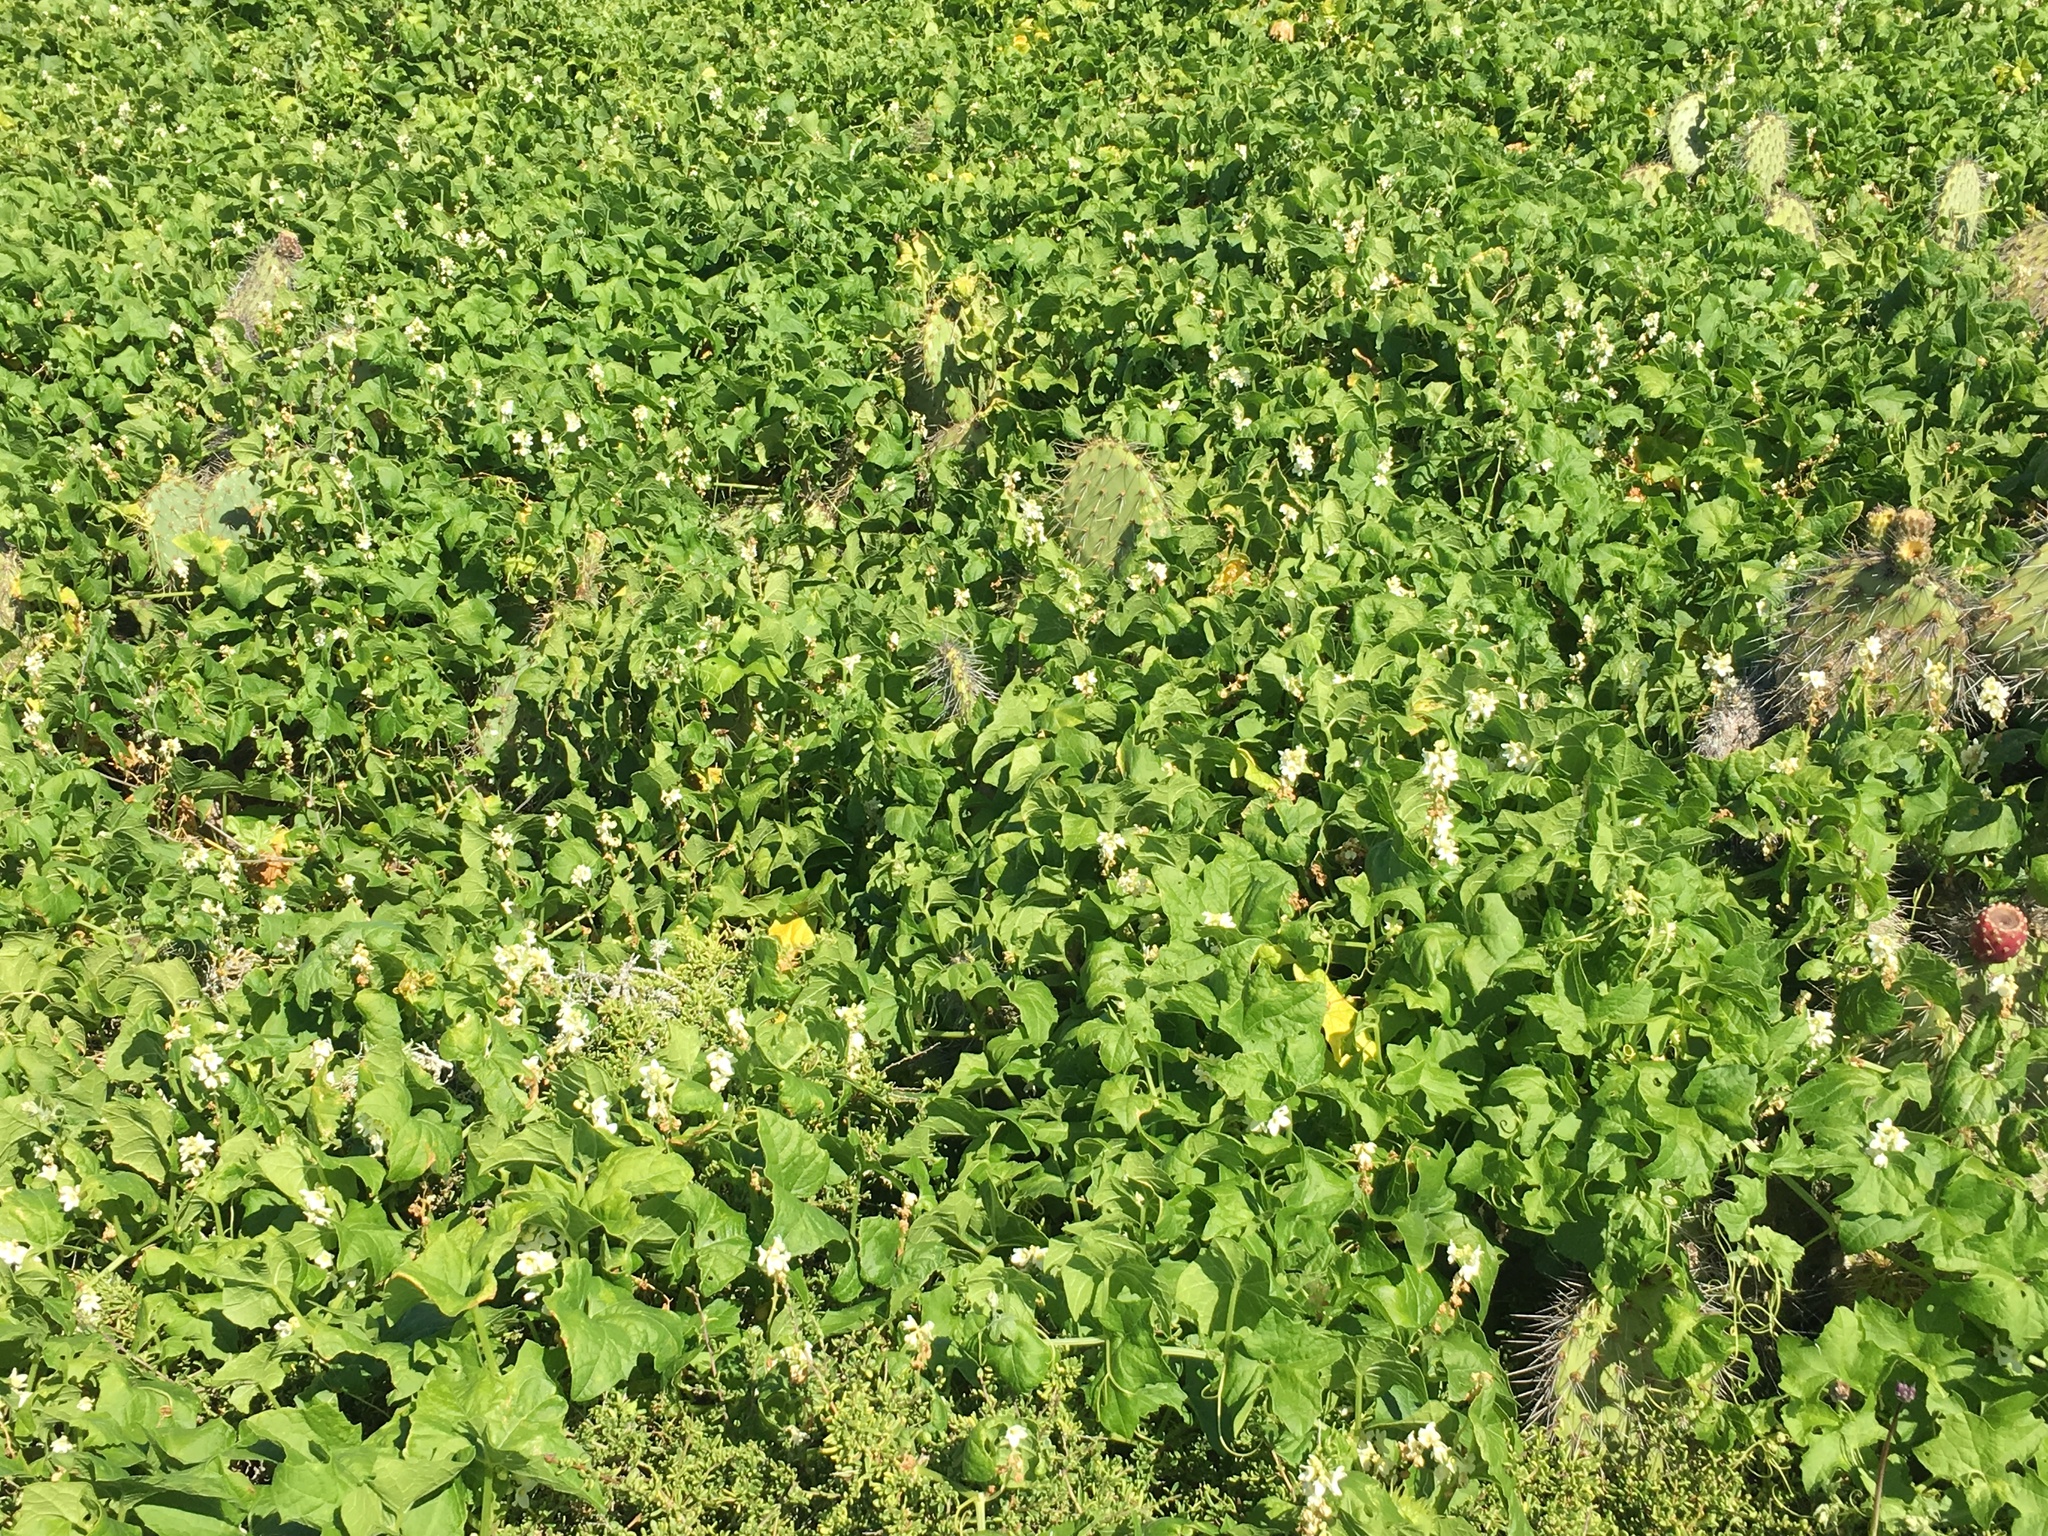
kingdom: Plantae
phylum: Tracheophyta
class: Magnoliopsida
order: Cucurbitales
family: Cucurbitaceae
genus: Marah
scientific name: Marah macrocarpa
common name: Cucamonga manroot
